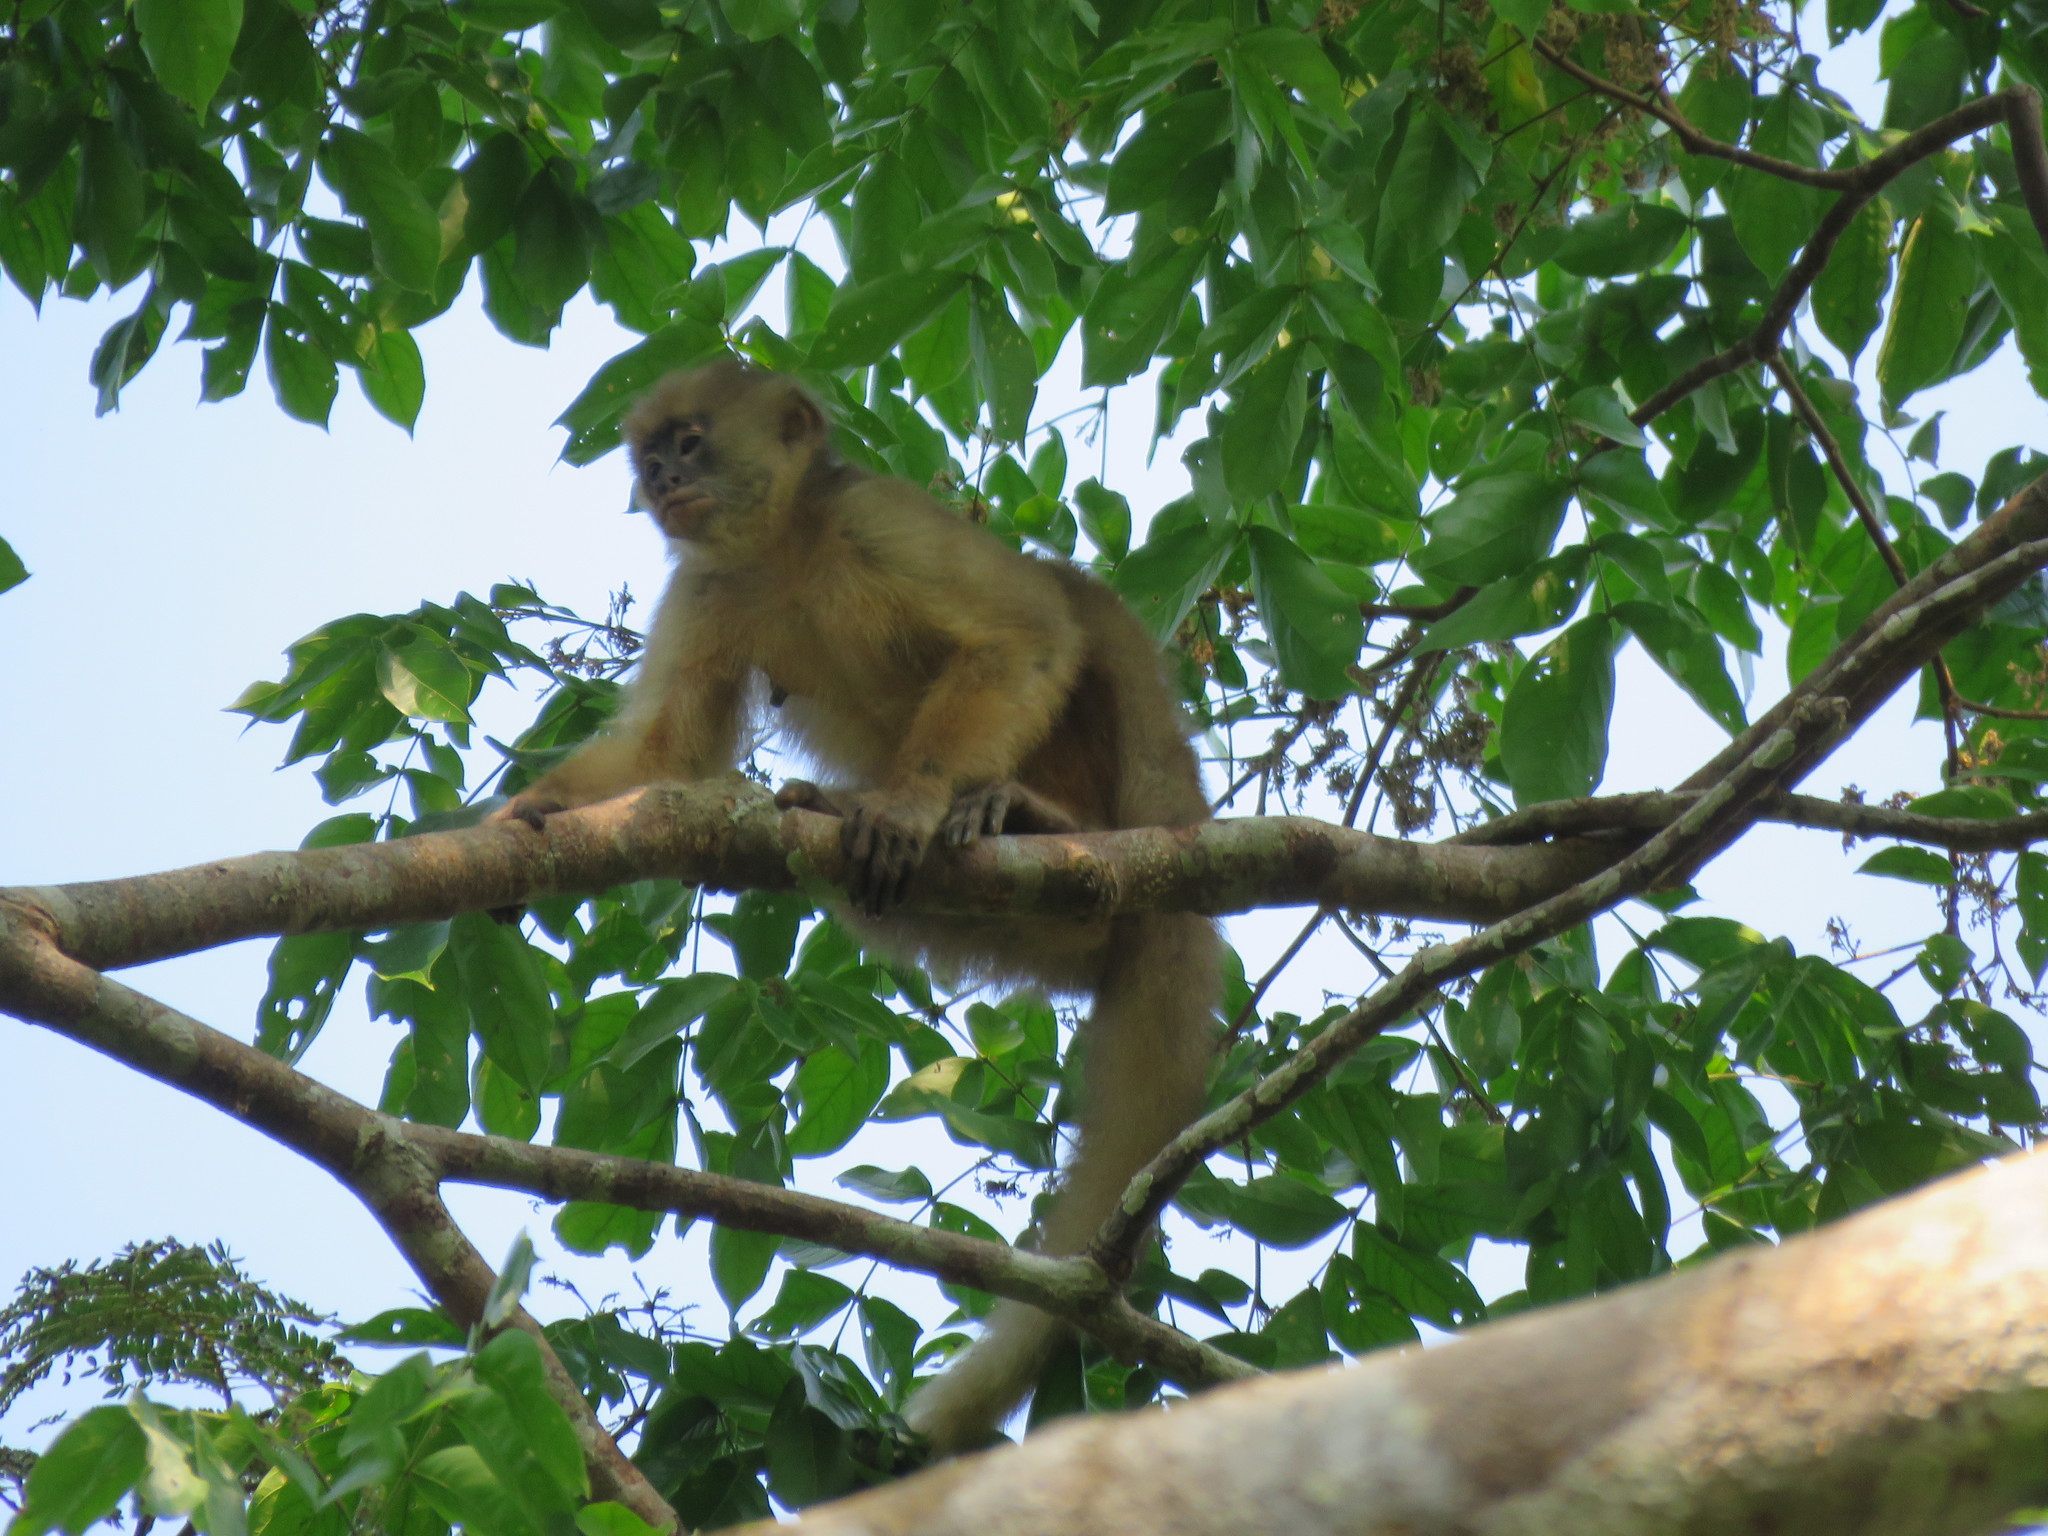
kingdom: Animalia
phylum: Chordata
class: Mammalia
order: Primates
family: Cebidae
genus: Cebus
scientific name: Cebus unicolor
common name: Spix's white-fronted capuchin
